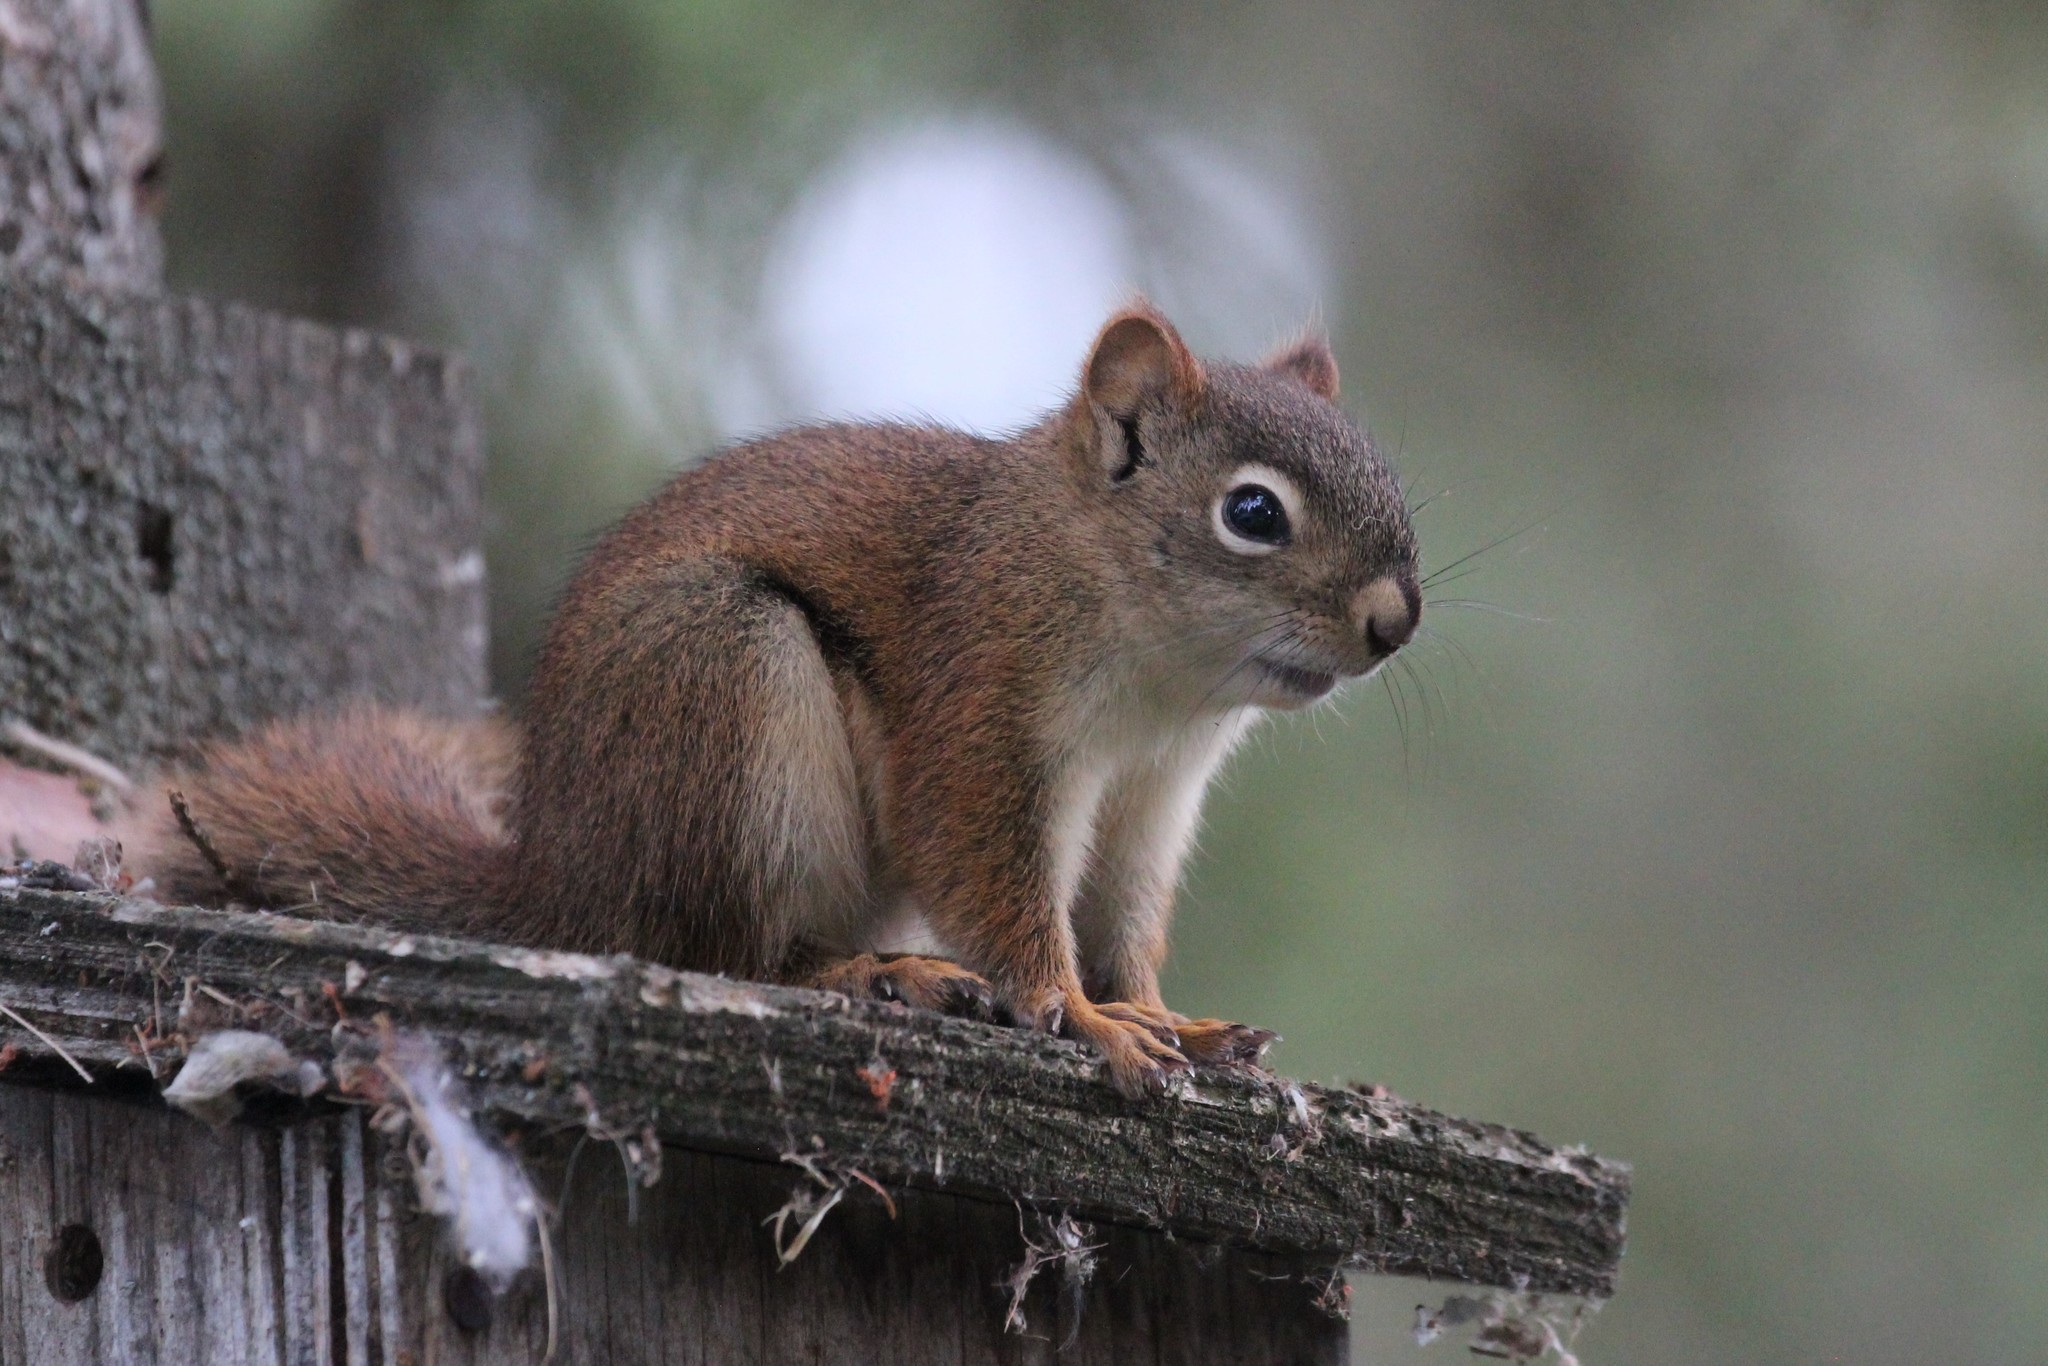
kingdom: Animalia
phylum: Chordata
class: Mammalia
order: Rodentia
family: Sciuridae
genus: Tamiasciurus
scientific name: Tamiasciurus hudsonicus
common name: Red squirrel
